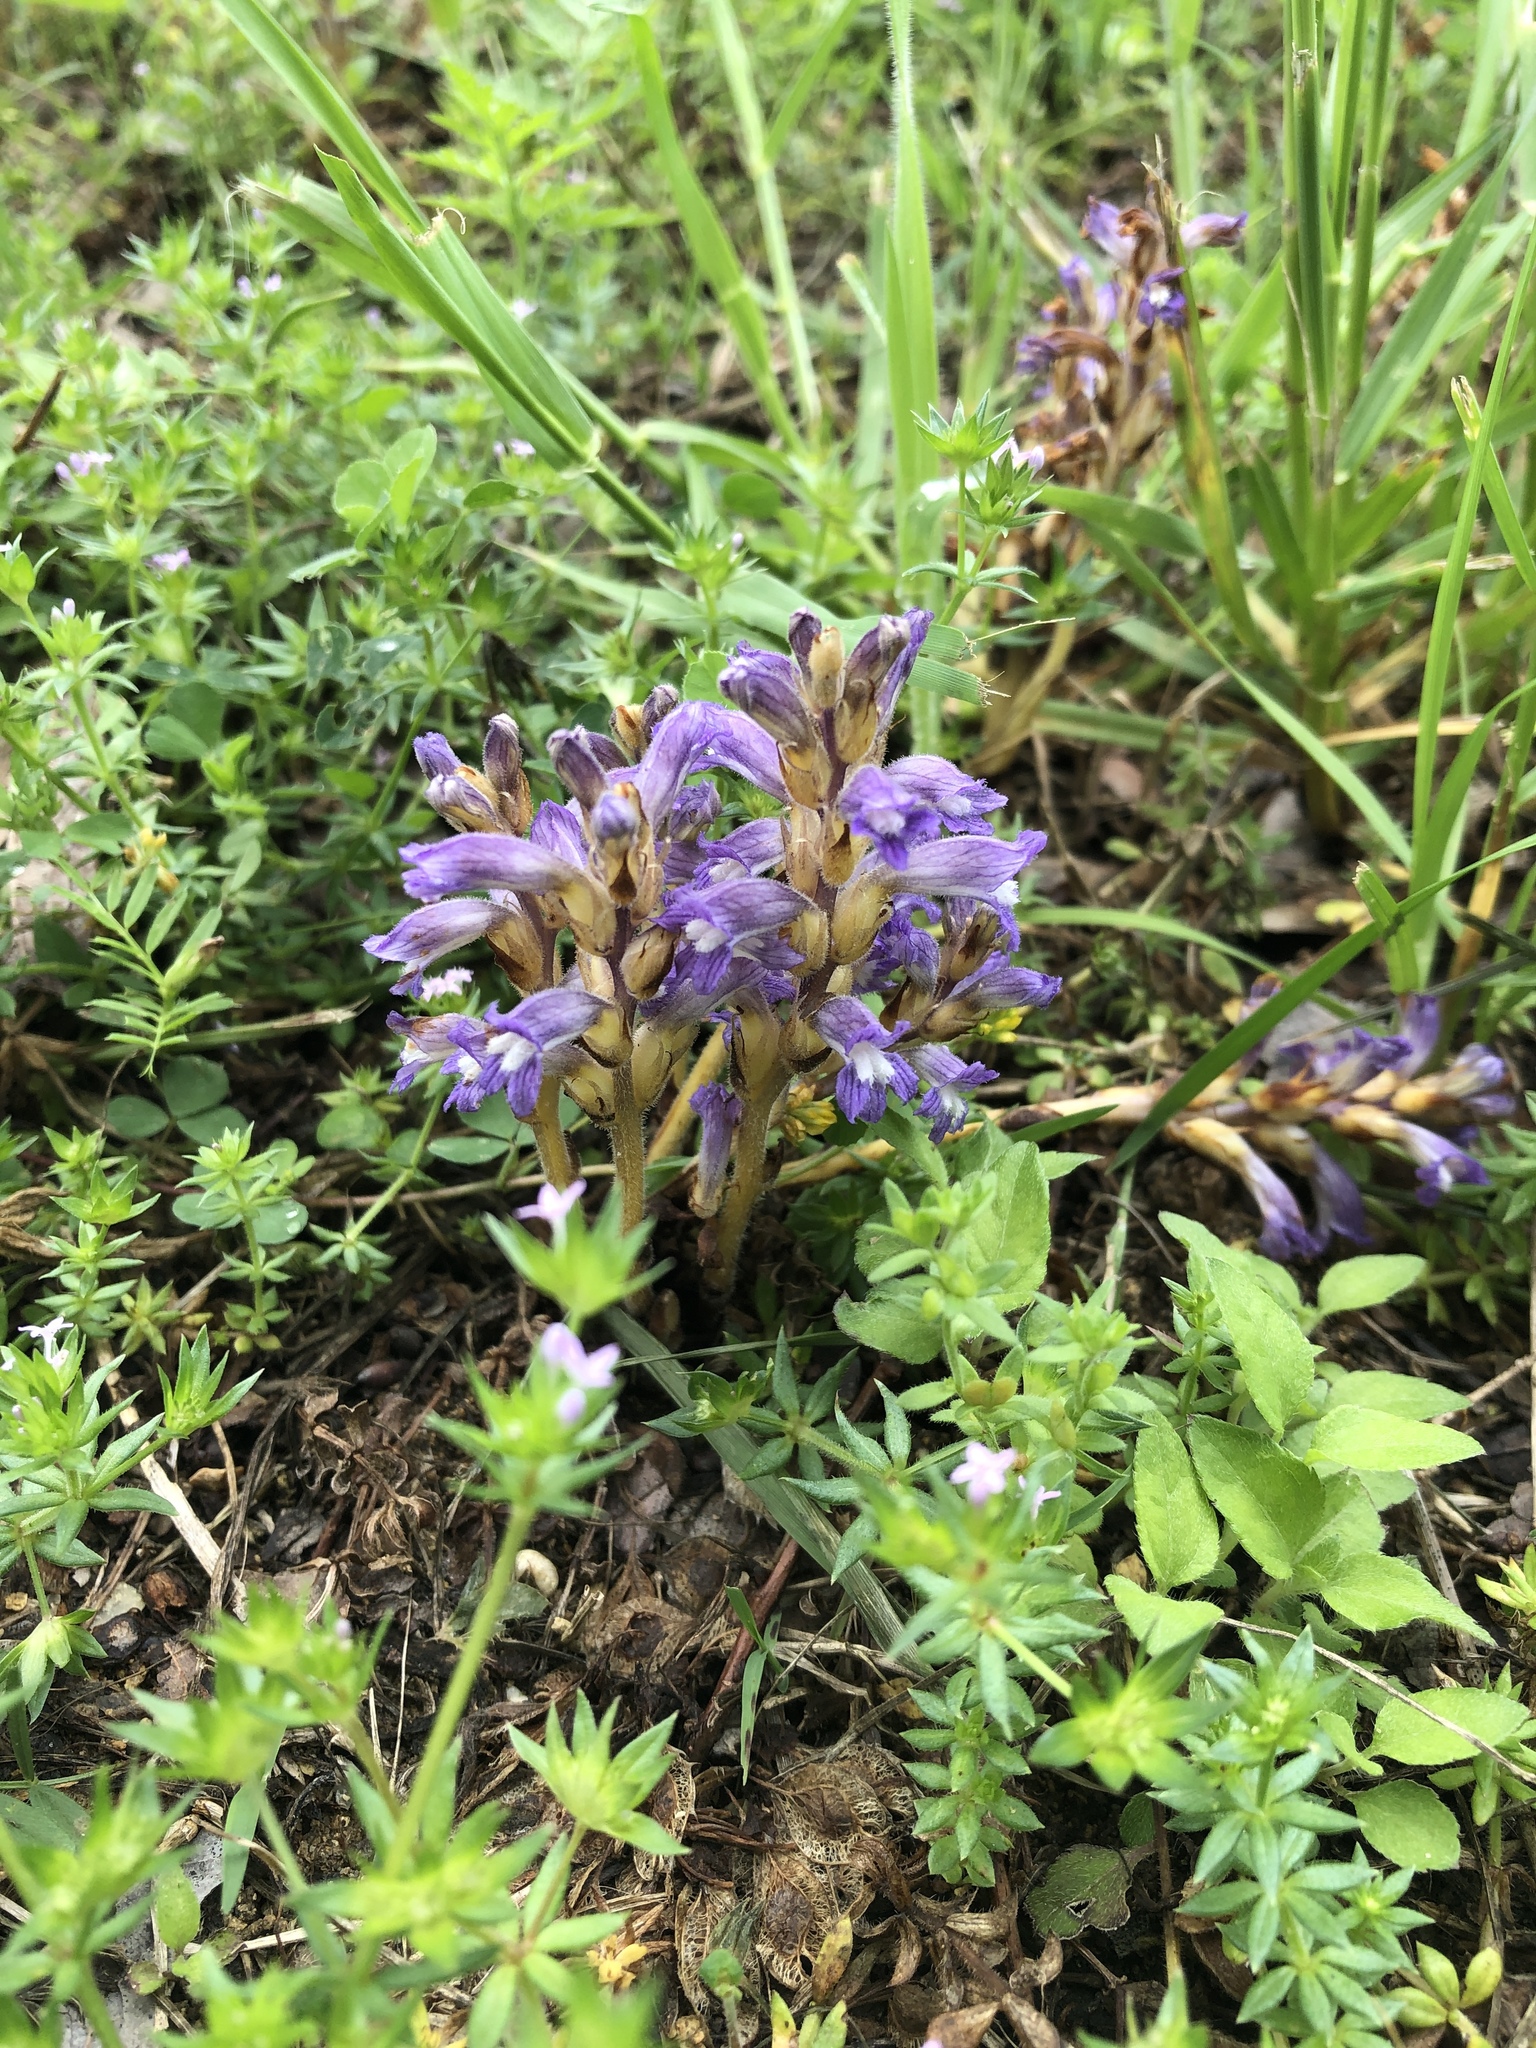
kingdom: Plantae
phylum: Tracheophyta
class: Magnoliopsida
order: Lamiales
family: Orobanchaceae
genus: Phelipanche
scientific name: Phelipanche mutelii
